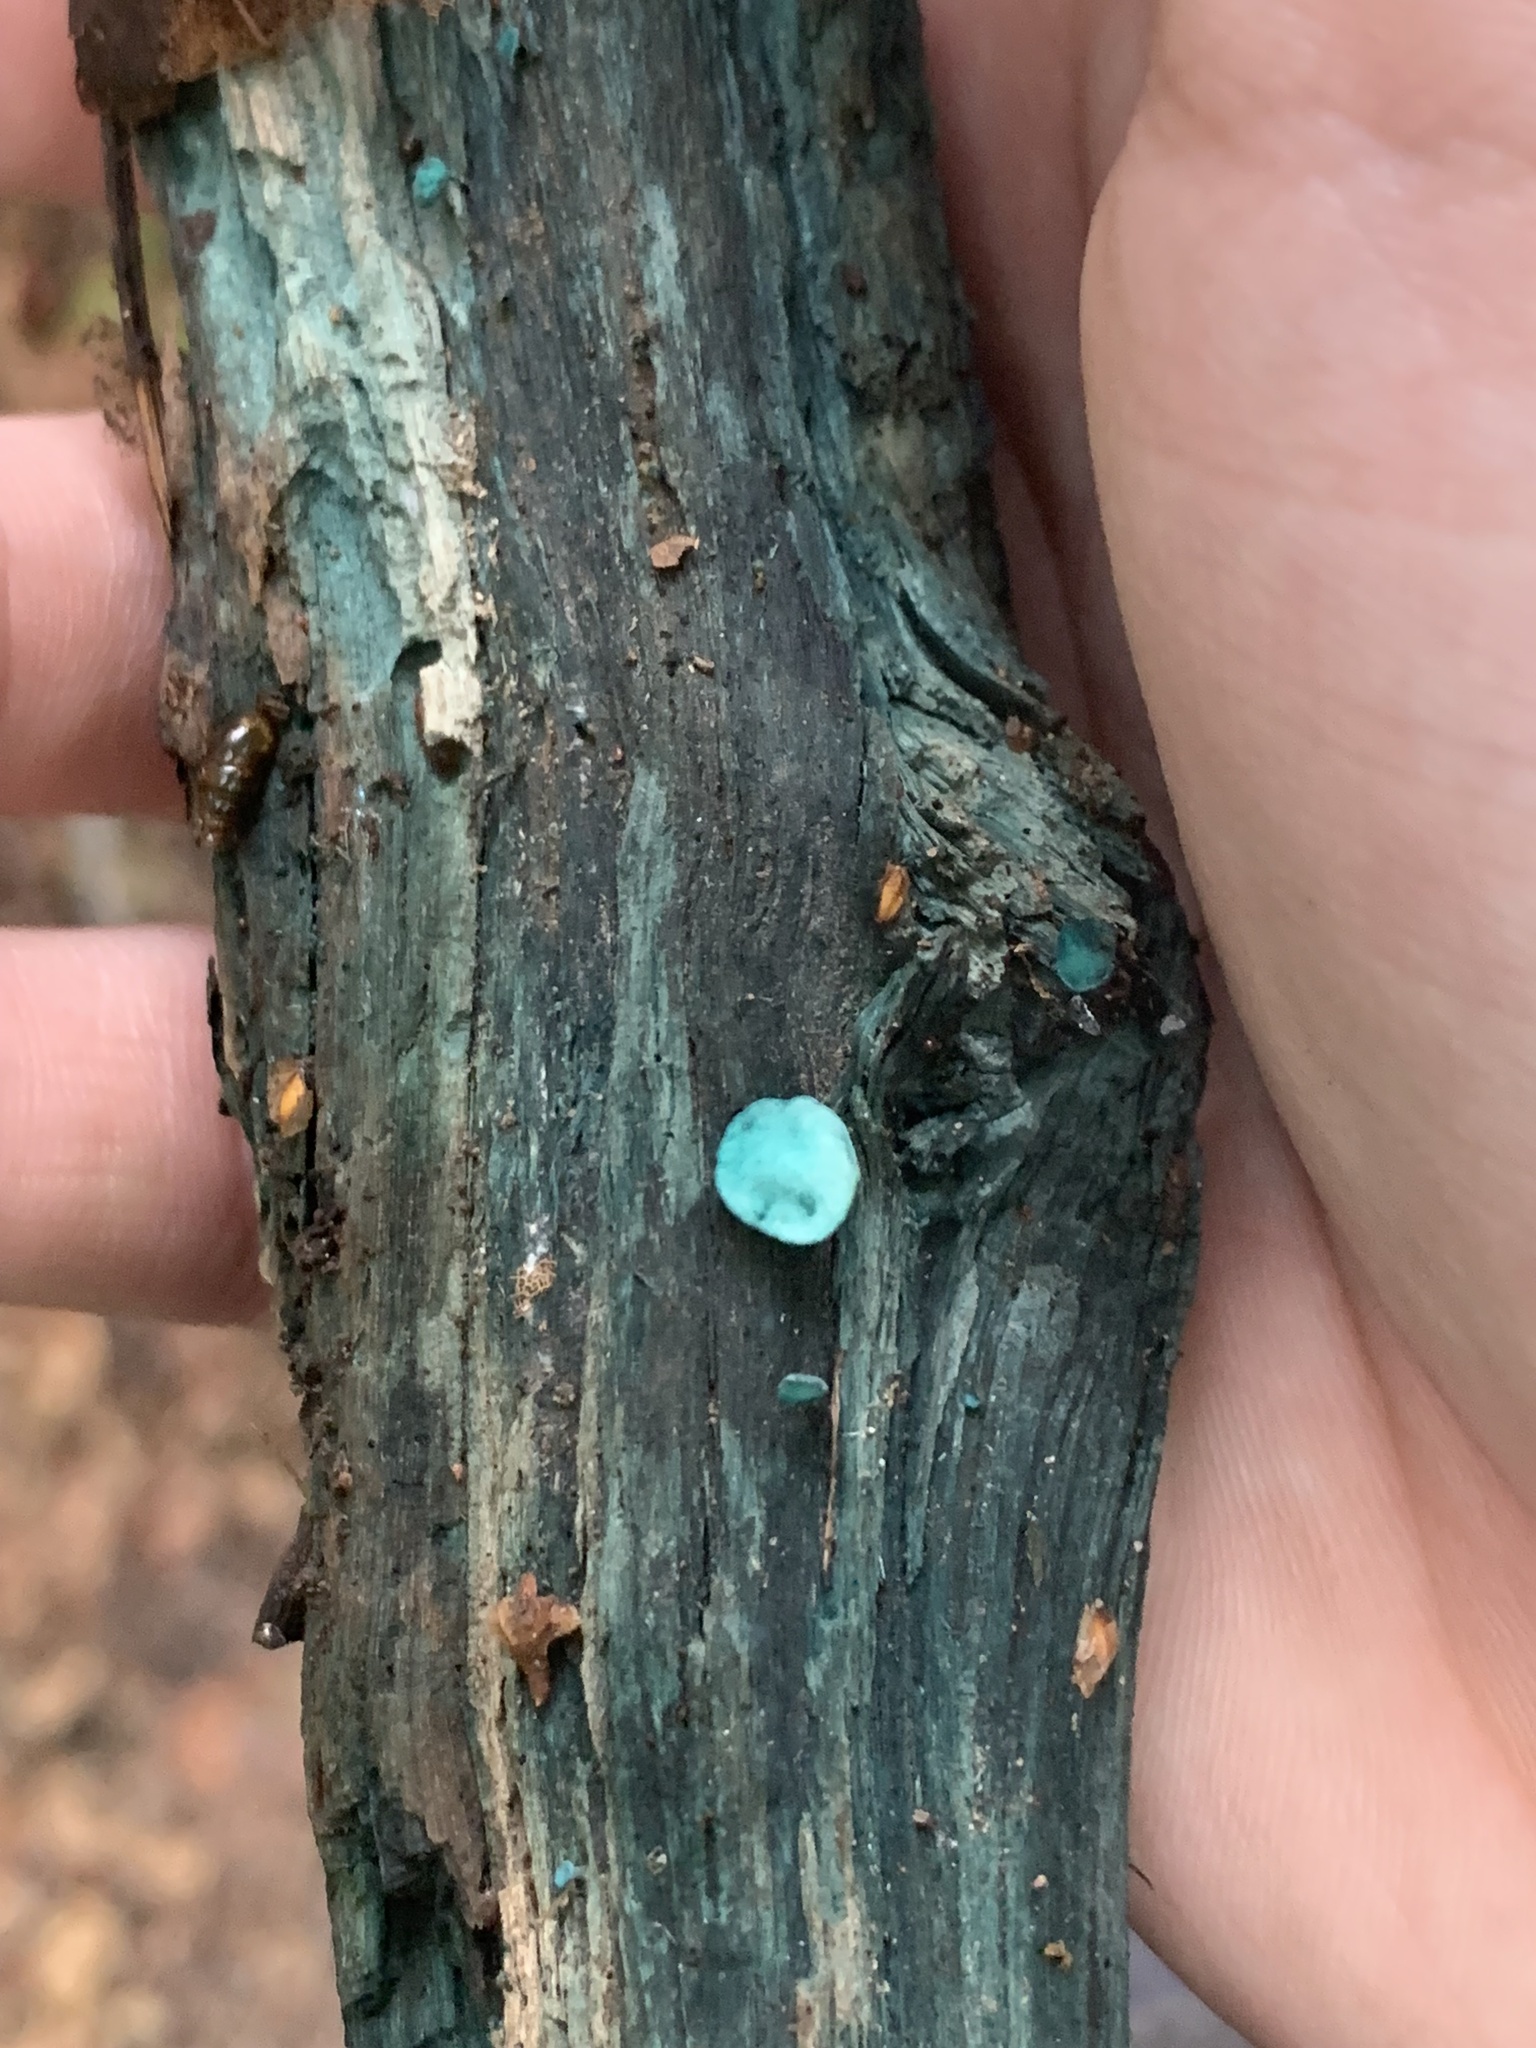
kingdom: Fungi
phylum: Ascomycota
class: Leotiomycetes
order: Helotiales
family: Chlorociboriaceae
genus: Chlorociboria
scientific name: Chlorociboria aeruginascens
